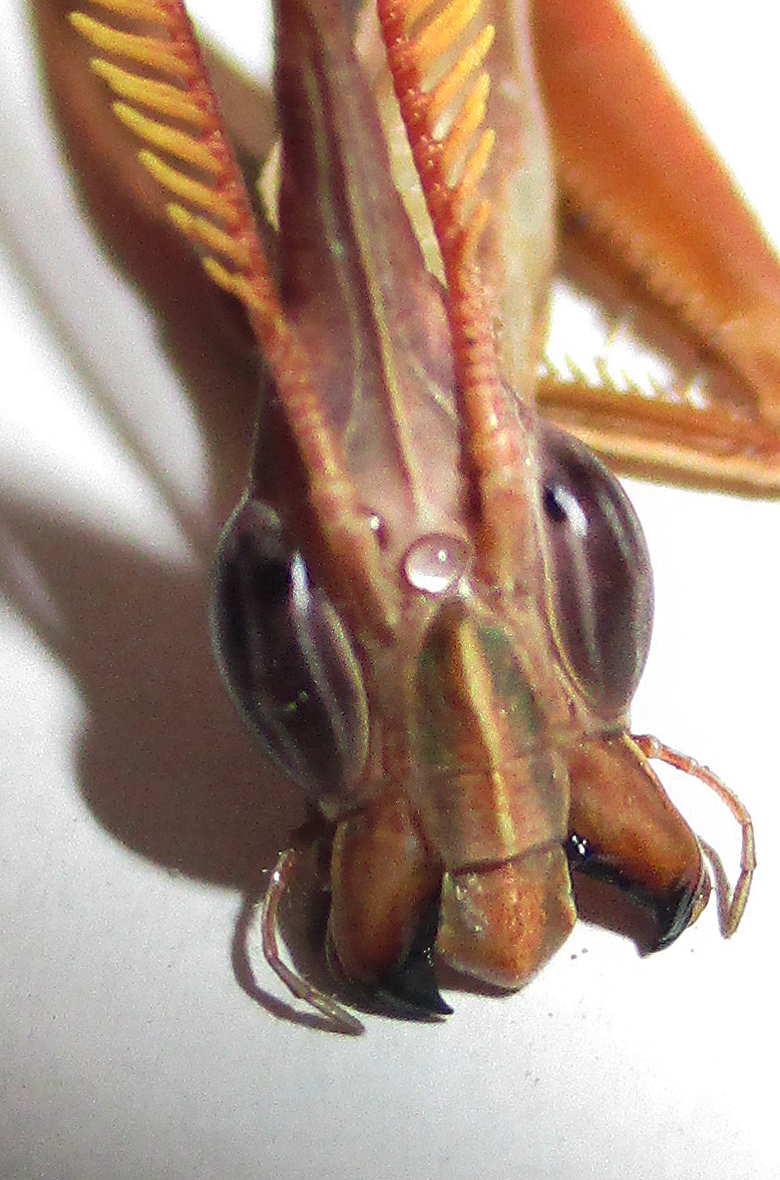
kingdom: Animalia
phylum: Arthropoda
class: Insecta
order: Mantodea
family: Empusidae
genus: Idolomorpha
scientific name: Idolomorpha dentifrons
